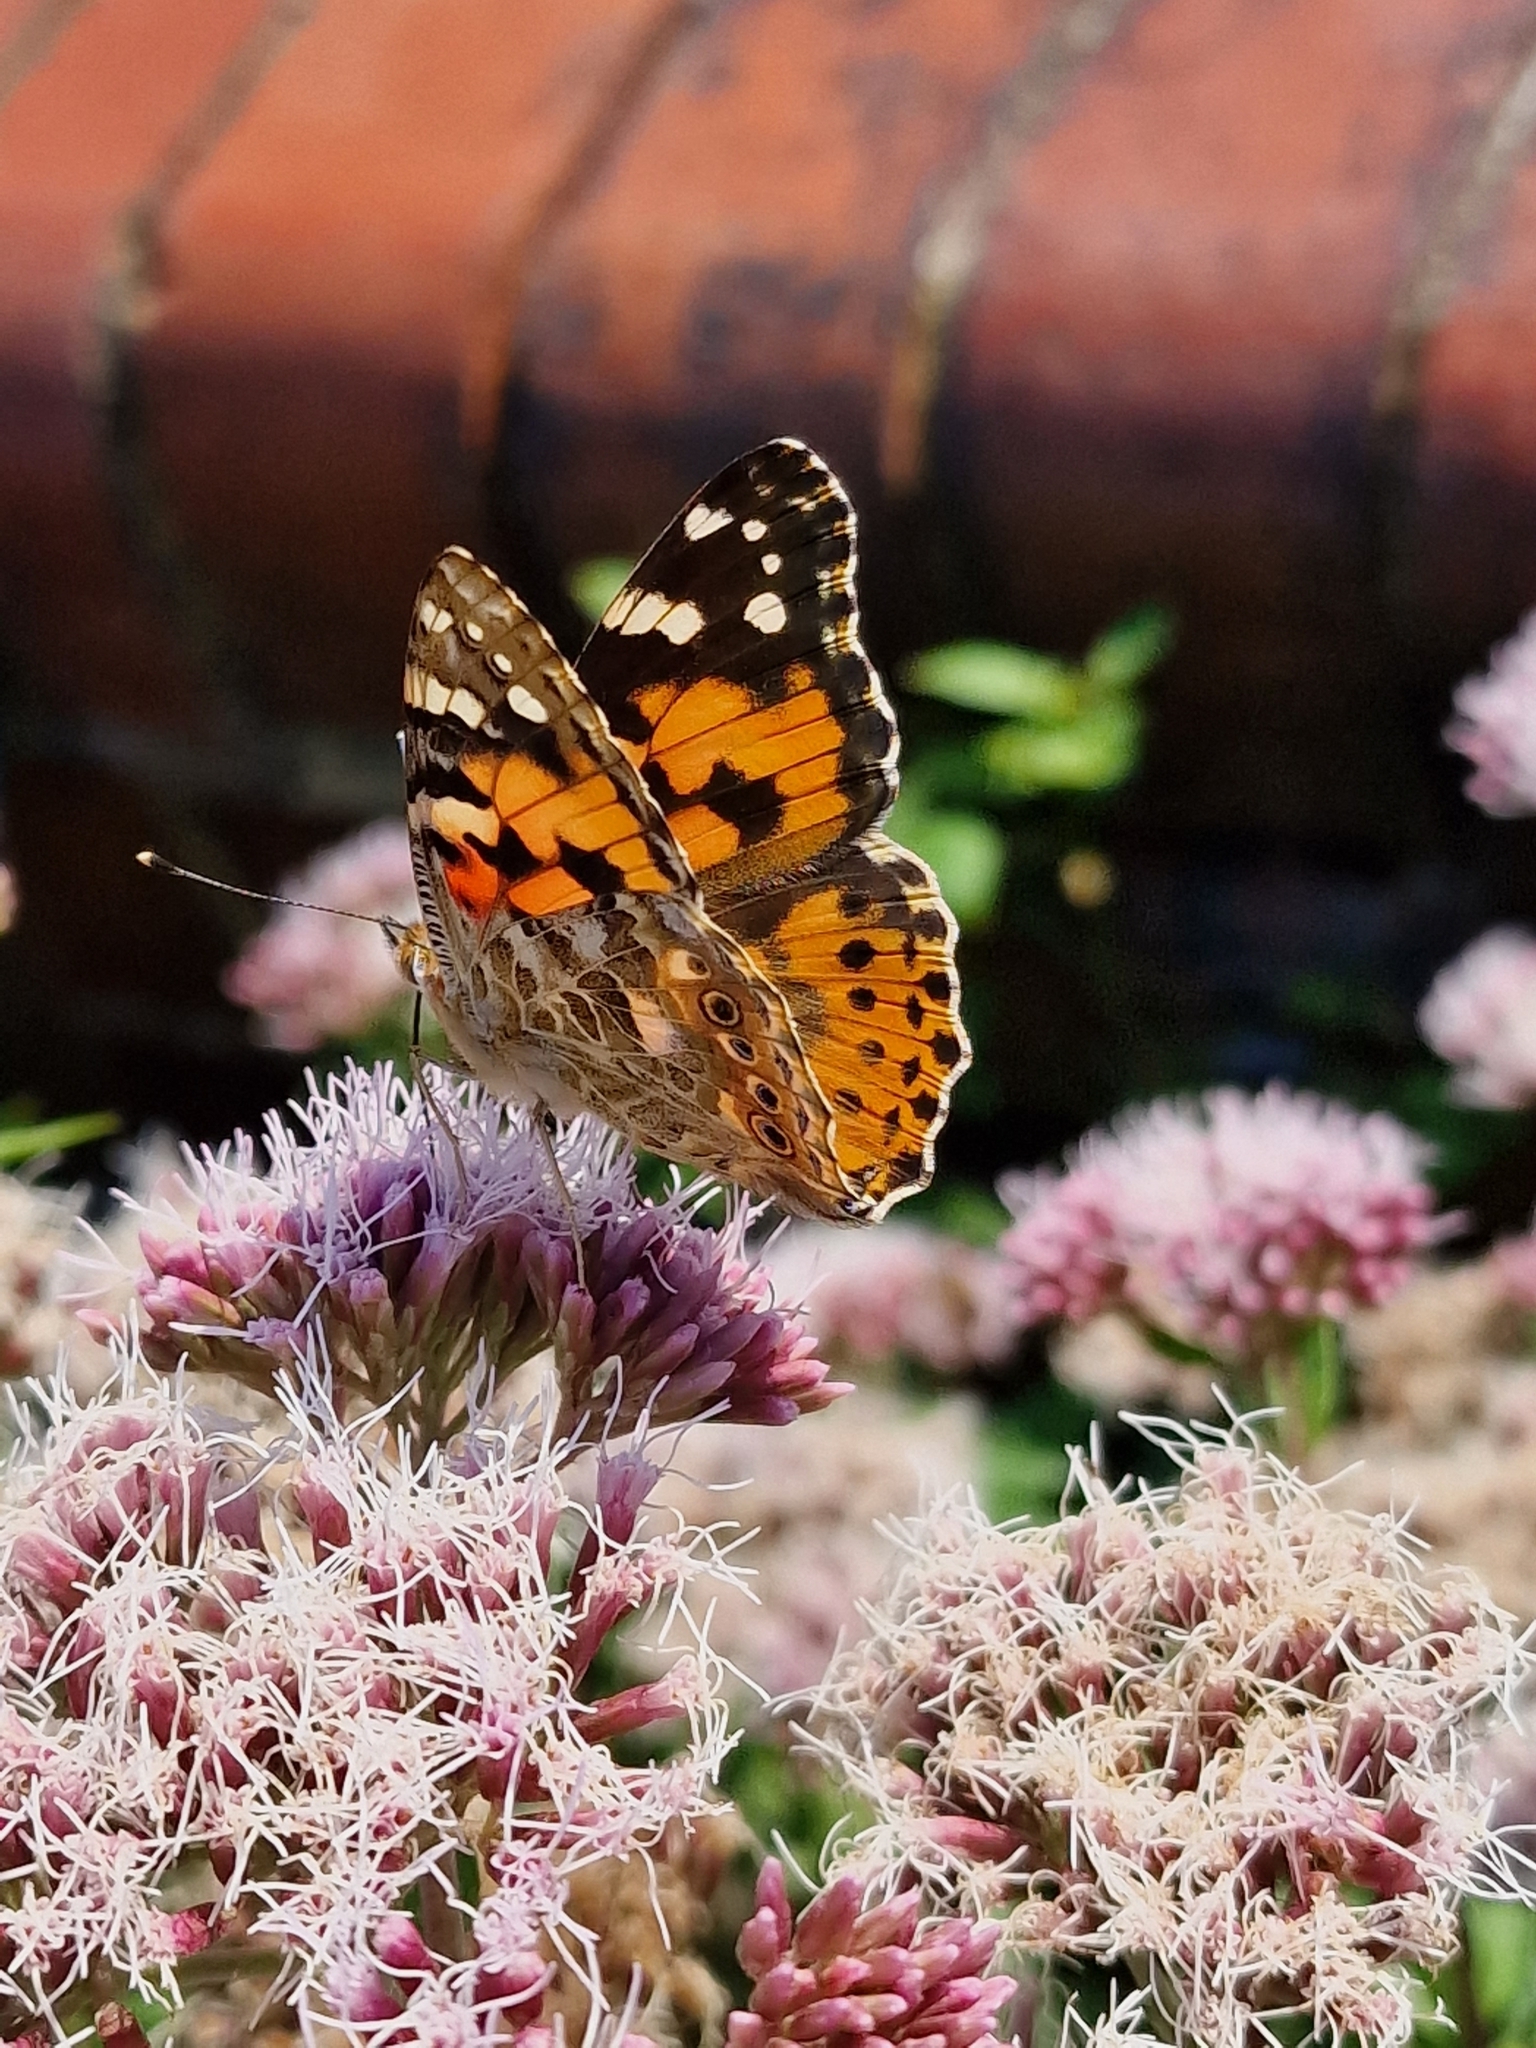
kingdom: Animalia
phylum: Arthropoda
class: Insecta
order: Lepidoptera
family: Nymphalidae
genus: Vanessa
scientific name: Vanessa cardui
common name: Painted lady
